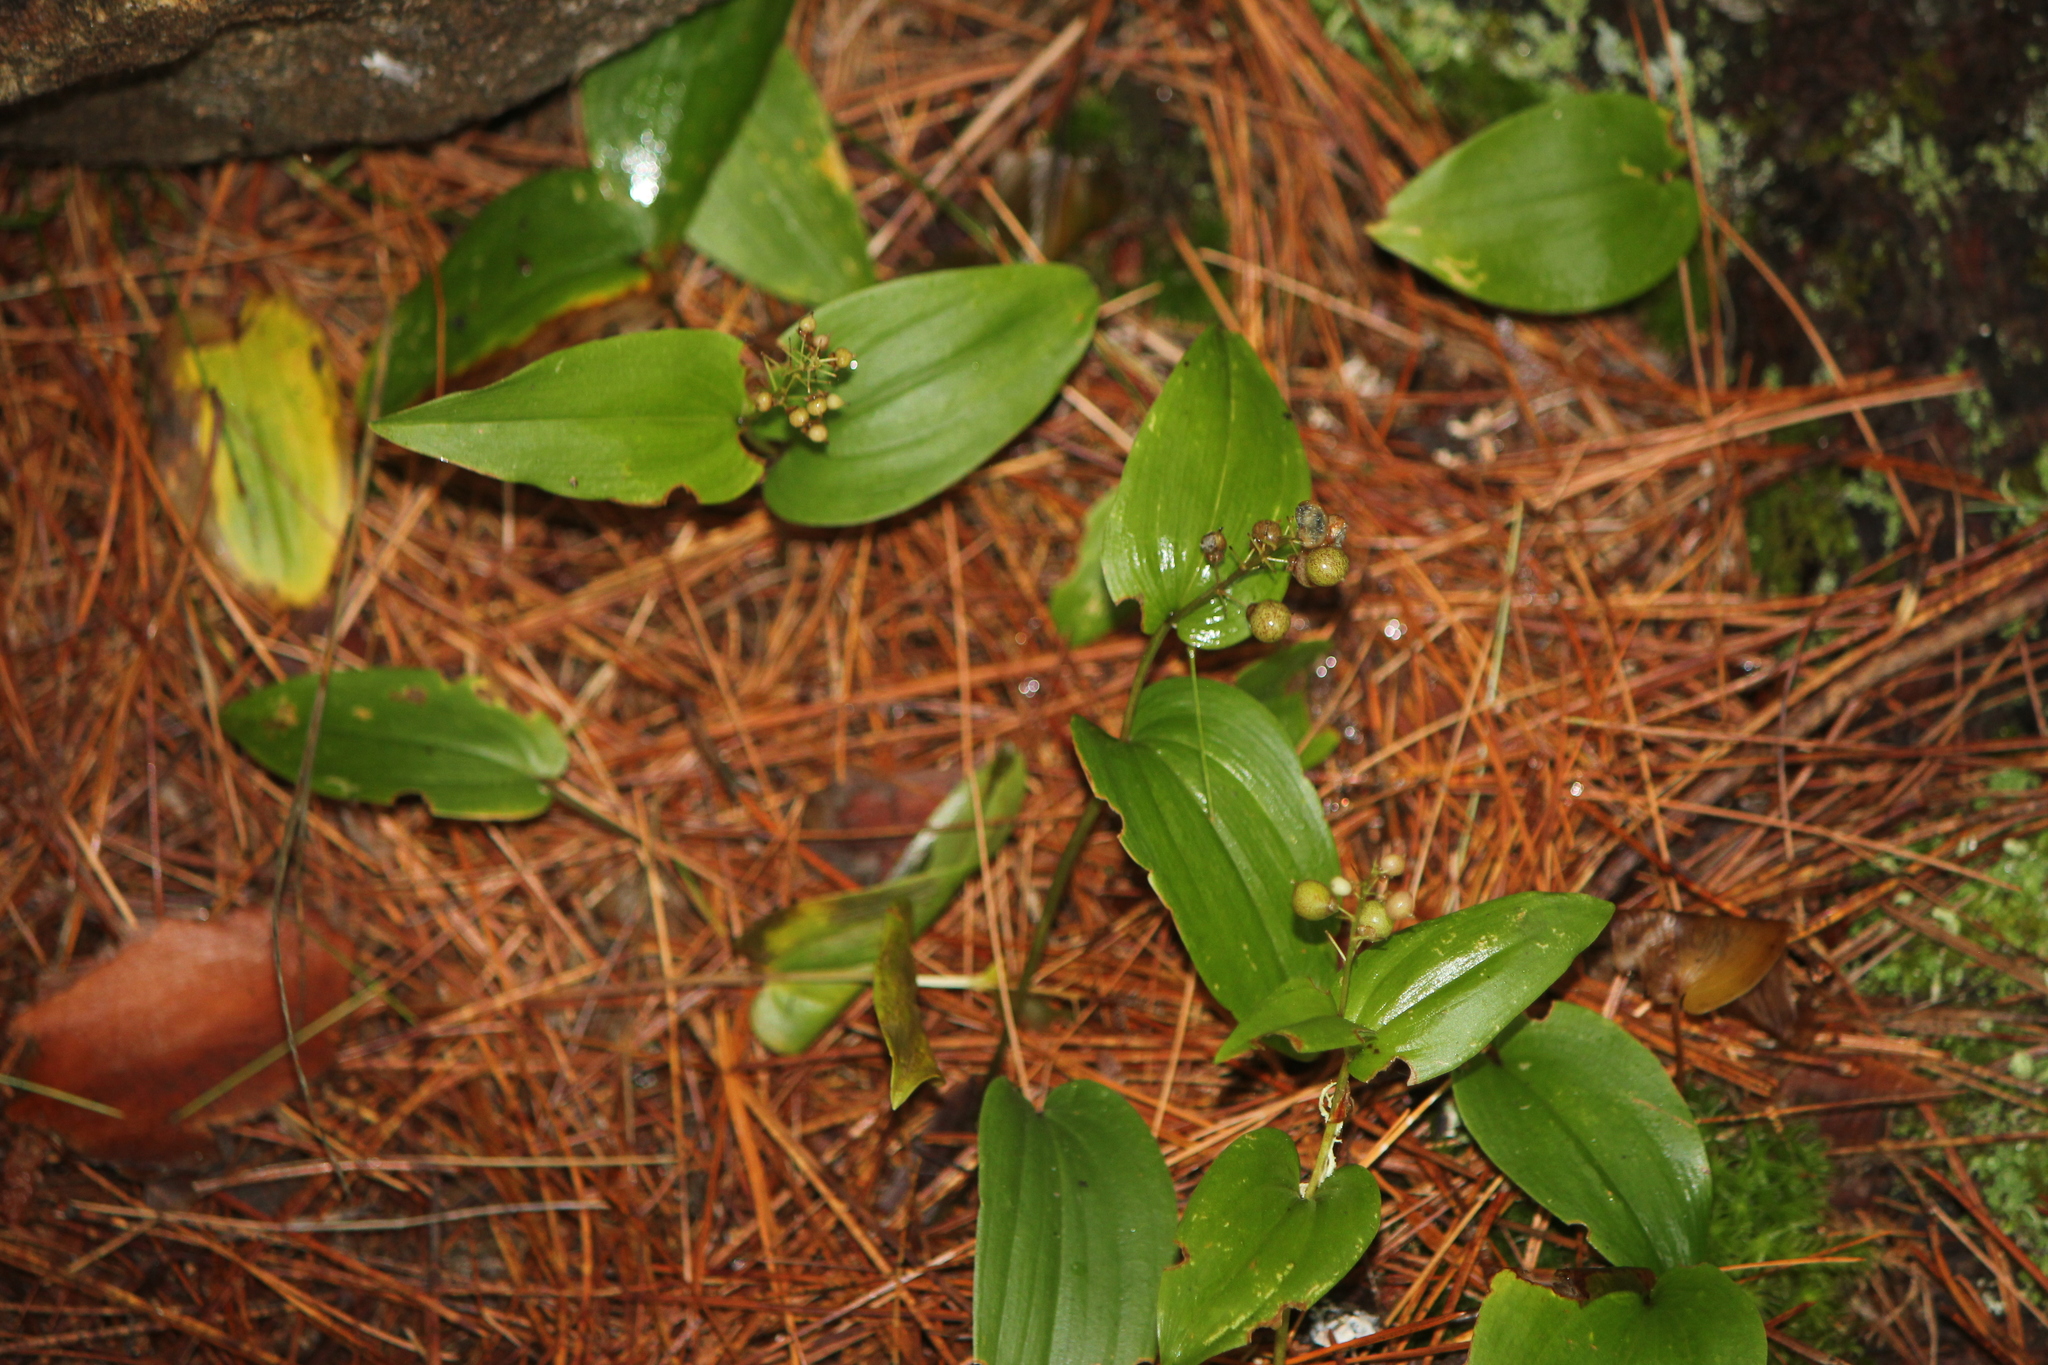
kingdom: Plantae
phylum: Tracheophyta
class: Liliopsida
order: Asparagales
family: Asparagaceae
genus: Maianthemum
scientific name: Maianthemum canadense
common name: False lily-of-the-valley
